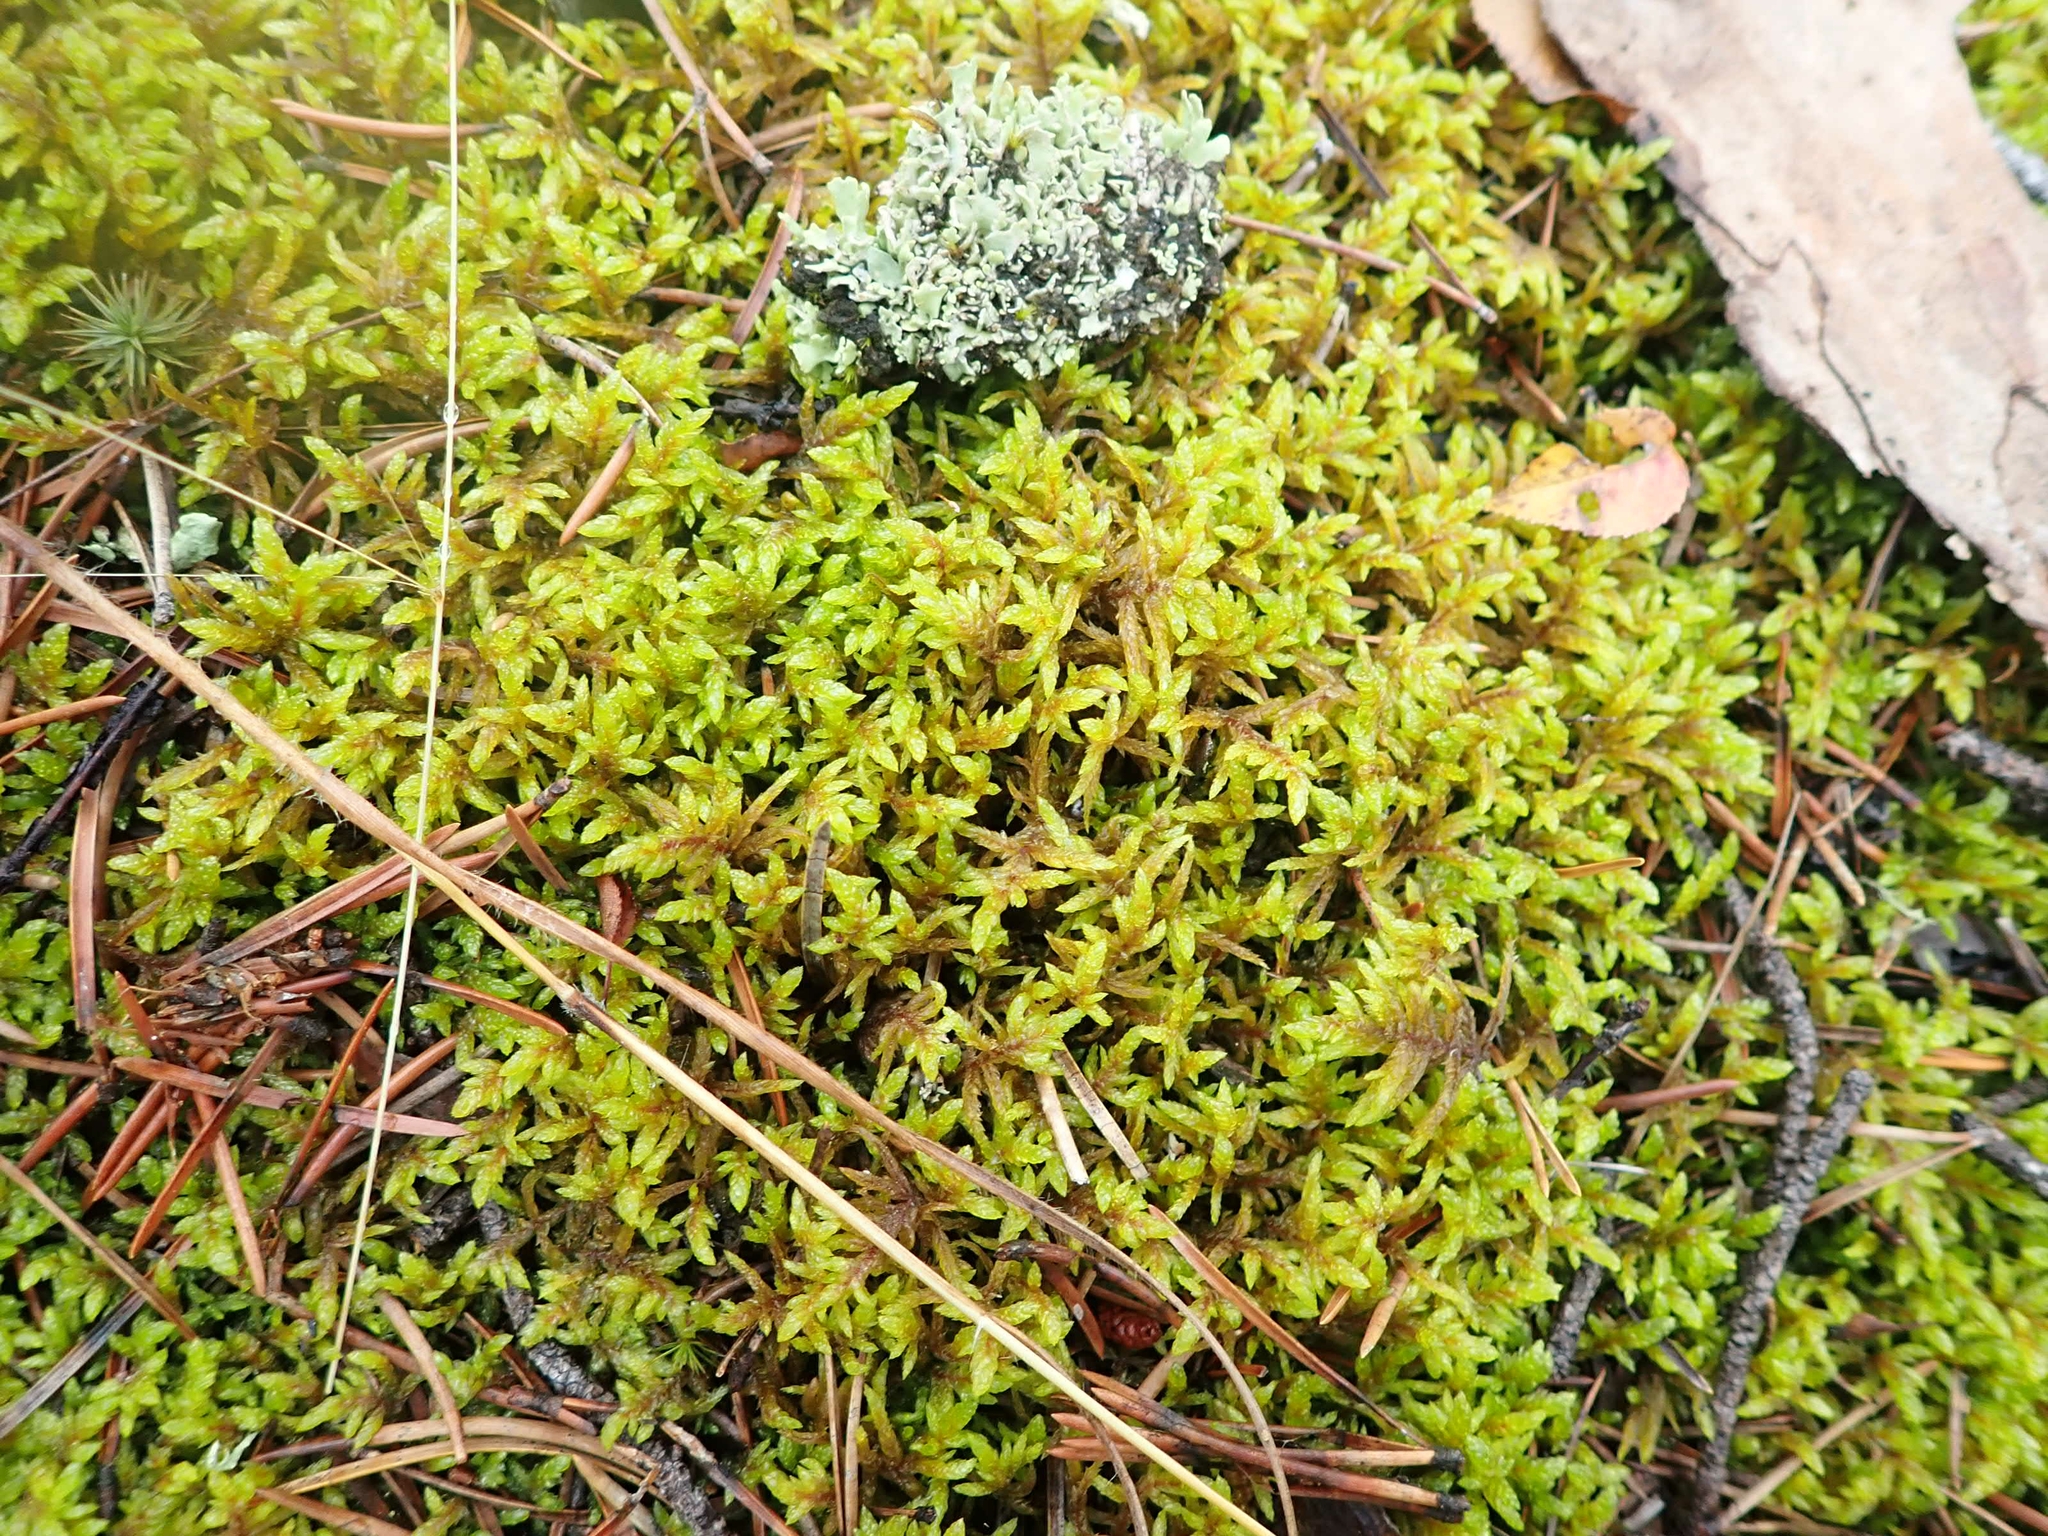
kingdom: Plantae
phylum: Bryophyta
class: Bryopsida
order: Hypnales
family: Hylocomiaceae
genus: Pleurozium
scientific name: Pleurozium schreberi
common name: Red-stemmed feather moss
